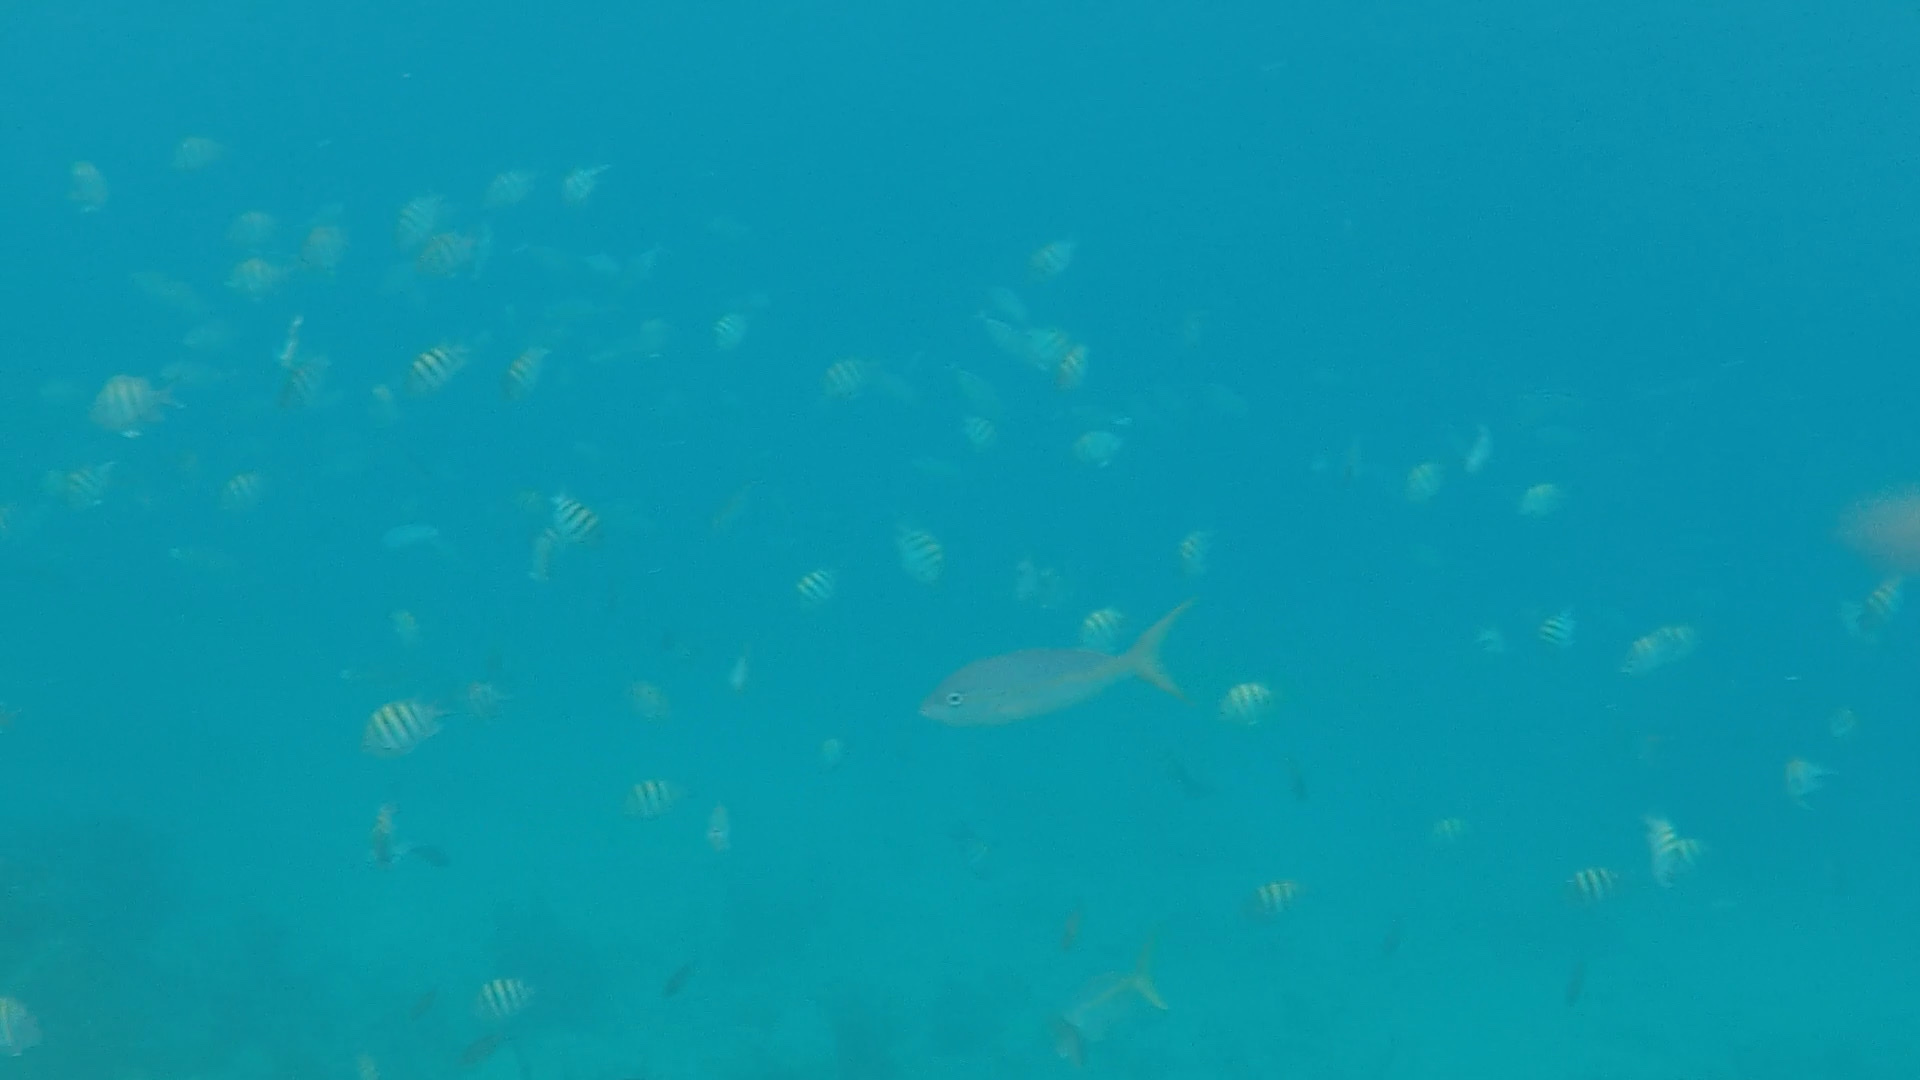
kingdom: Animalia
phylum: Chordata
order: Perciformes
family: Pomacentridae
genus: Abudefduf
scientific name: Abudefduf saxatilis
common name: Sergeant major
